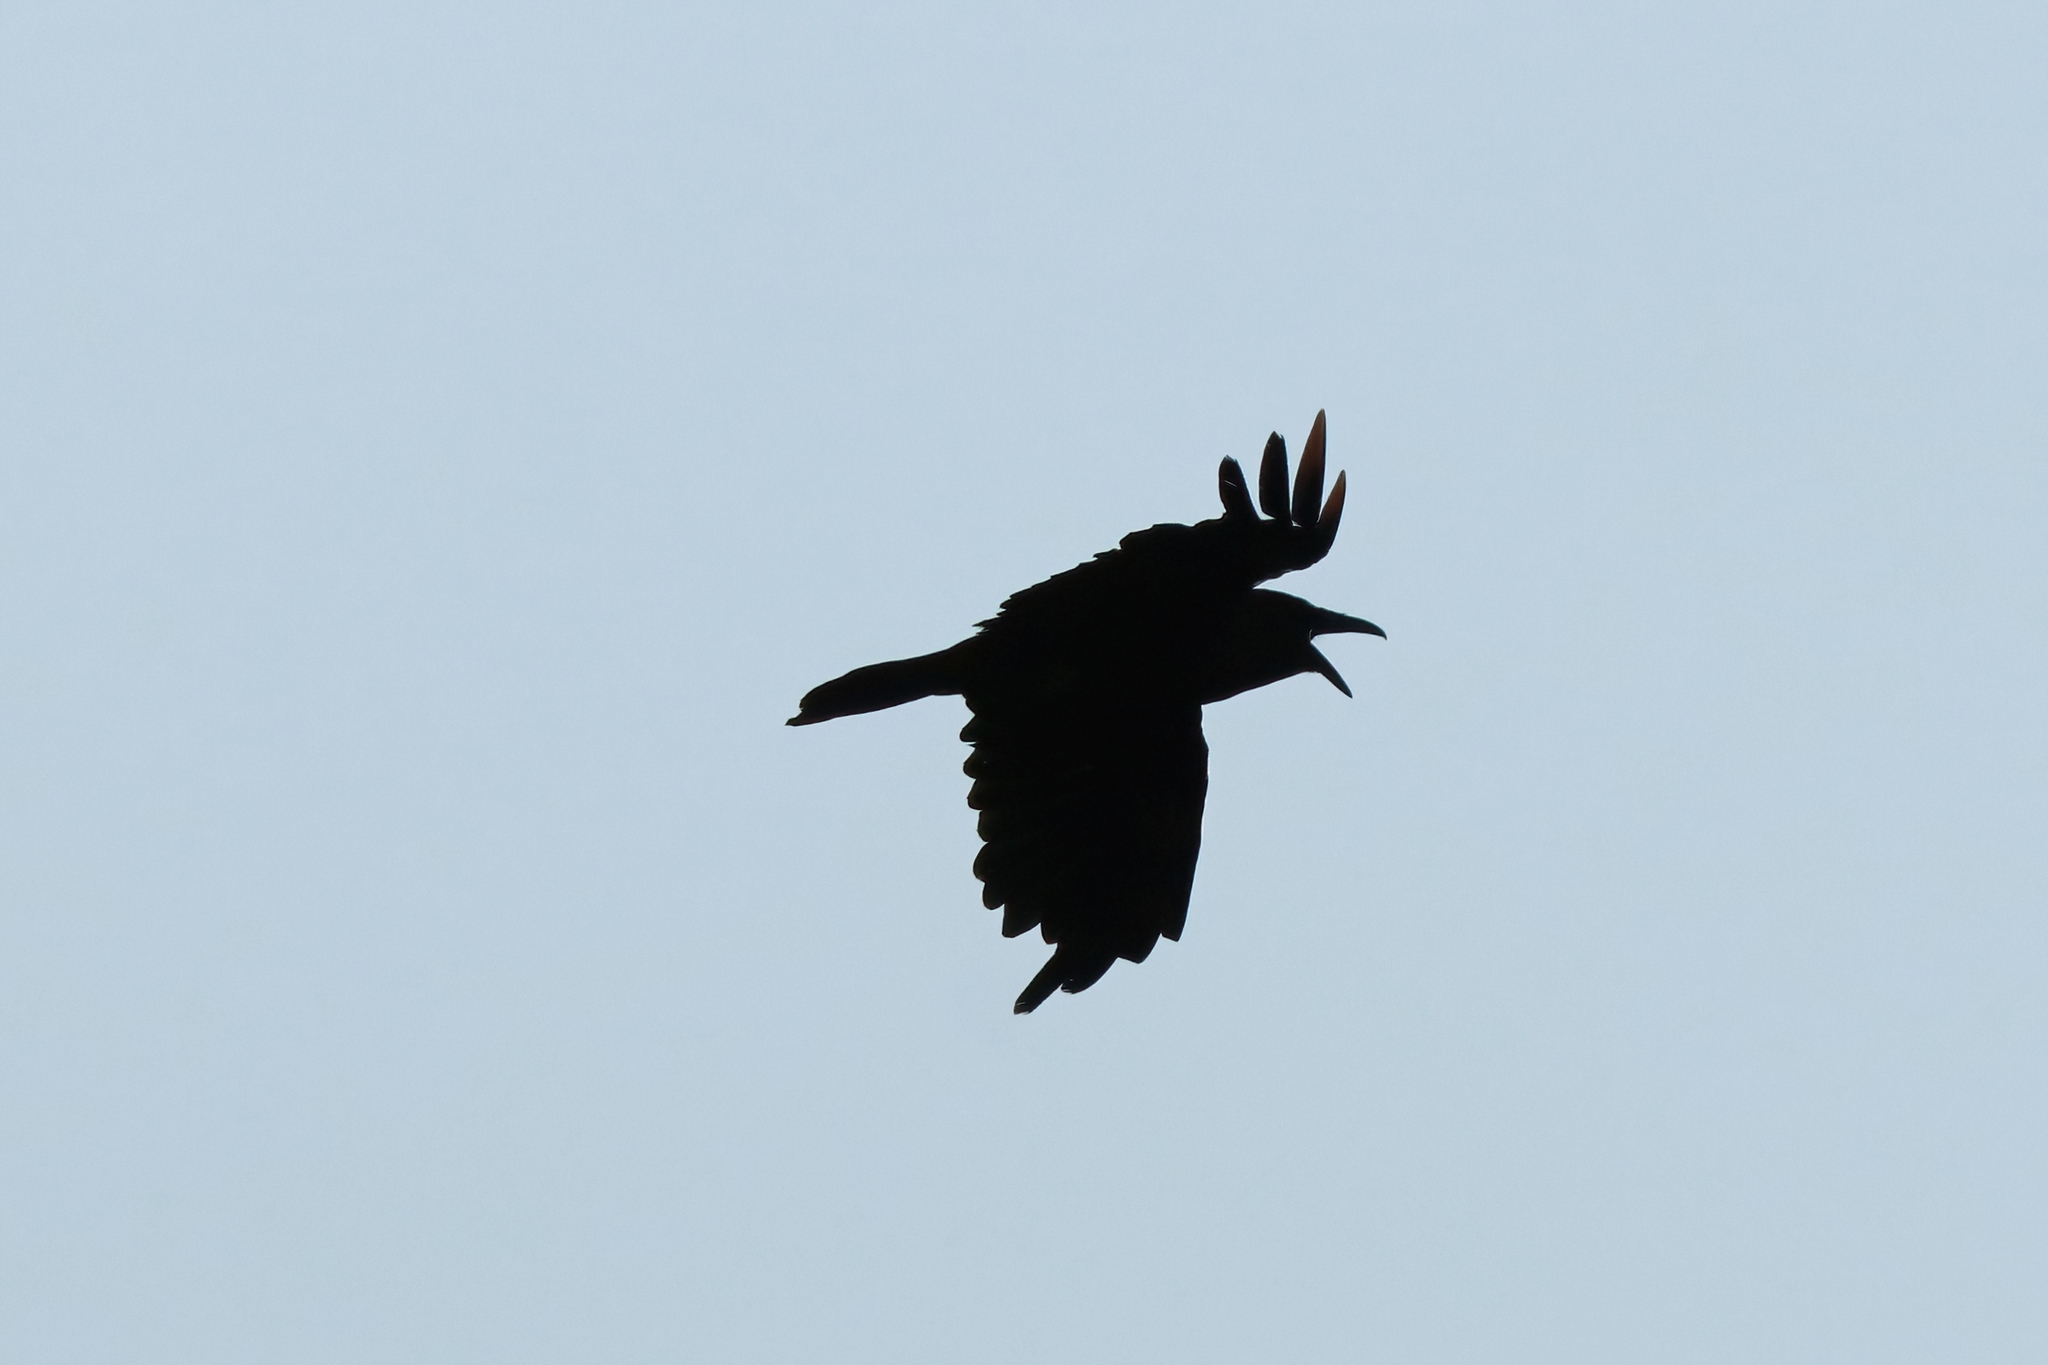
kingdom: Animalia
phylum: Chordata
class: Aves
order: Passeriformes
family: Corvidae
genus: Corvus
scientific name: Corvus corax
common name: Common raven
